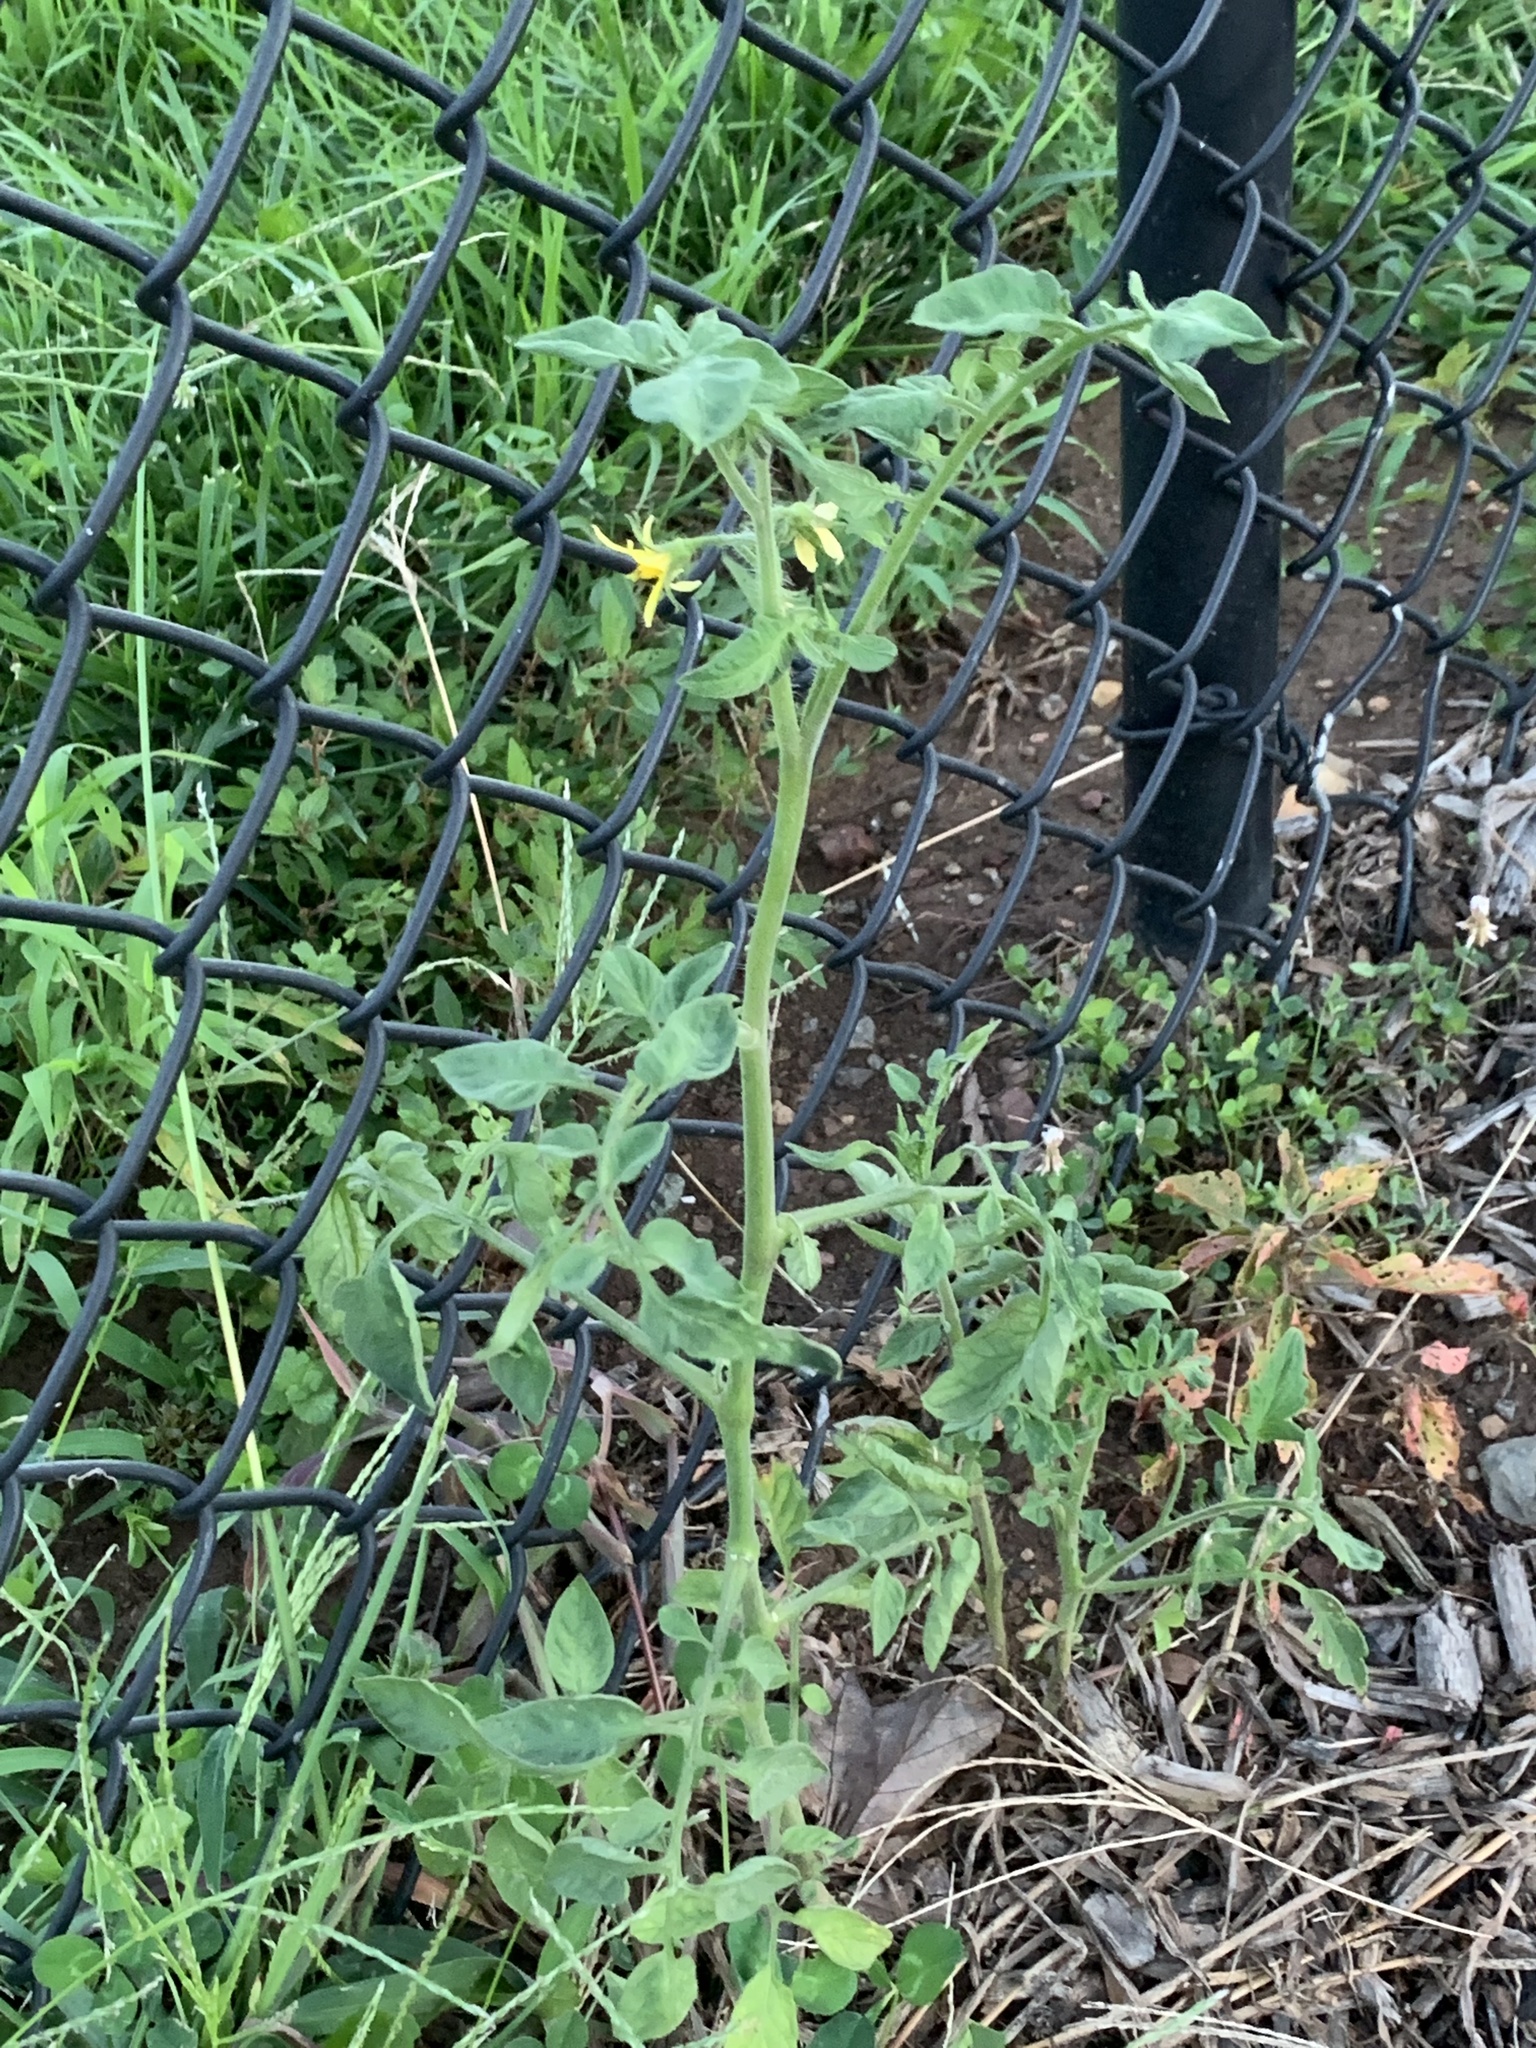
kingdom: Plantae
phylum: Tracheophyta
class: Magnoliopsida
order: Solanales
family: Solanaceae
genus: Solanum
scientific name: Solanum lycopersicum
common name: Garden tomato
